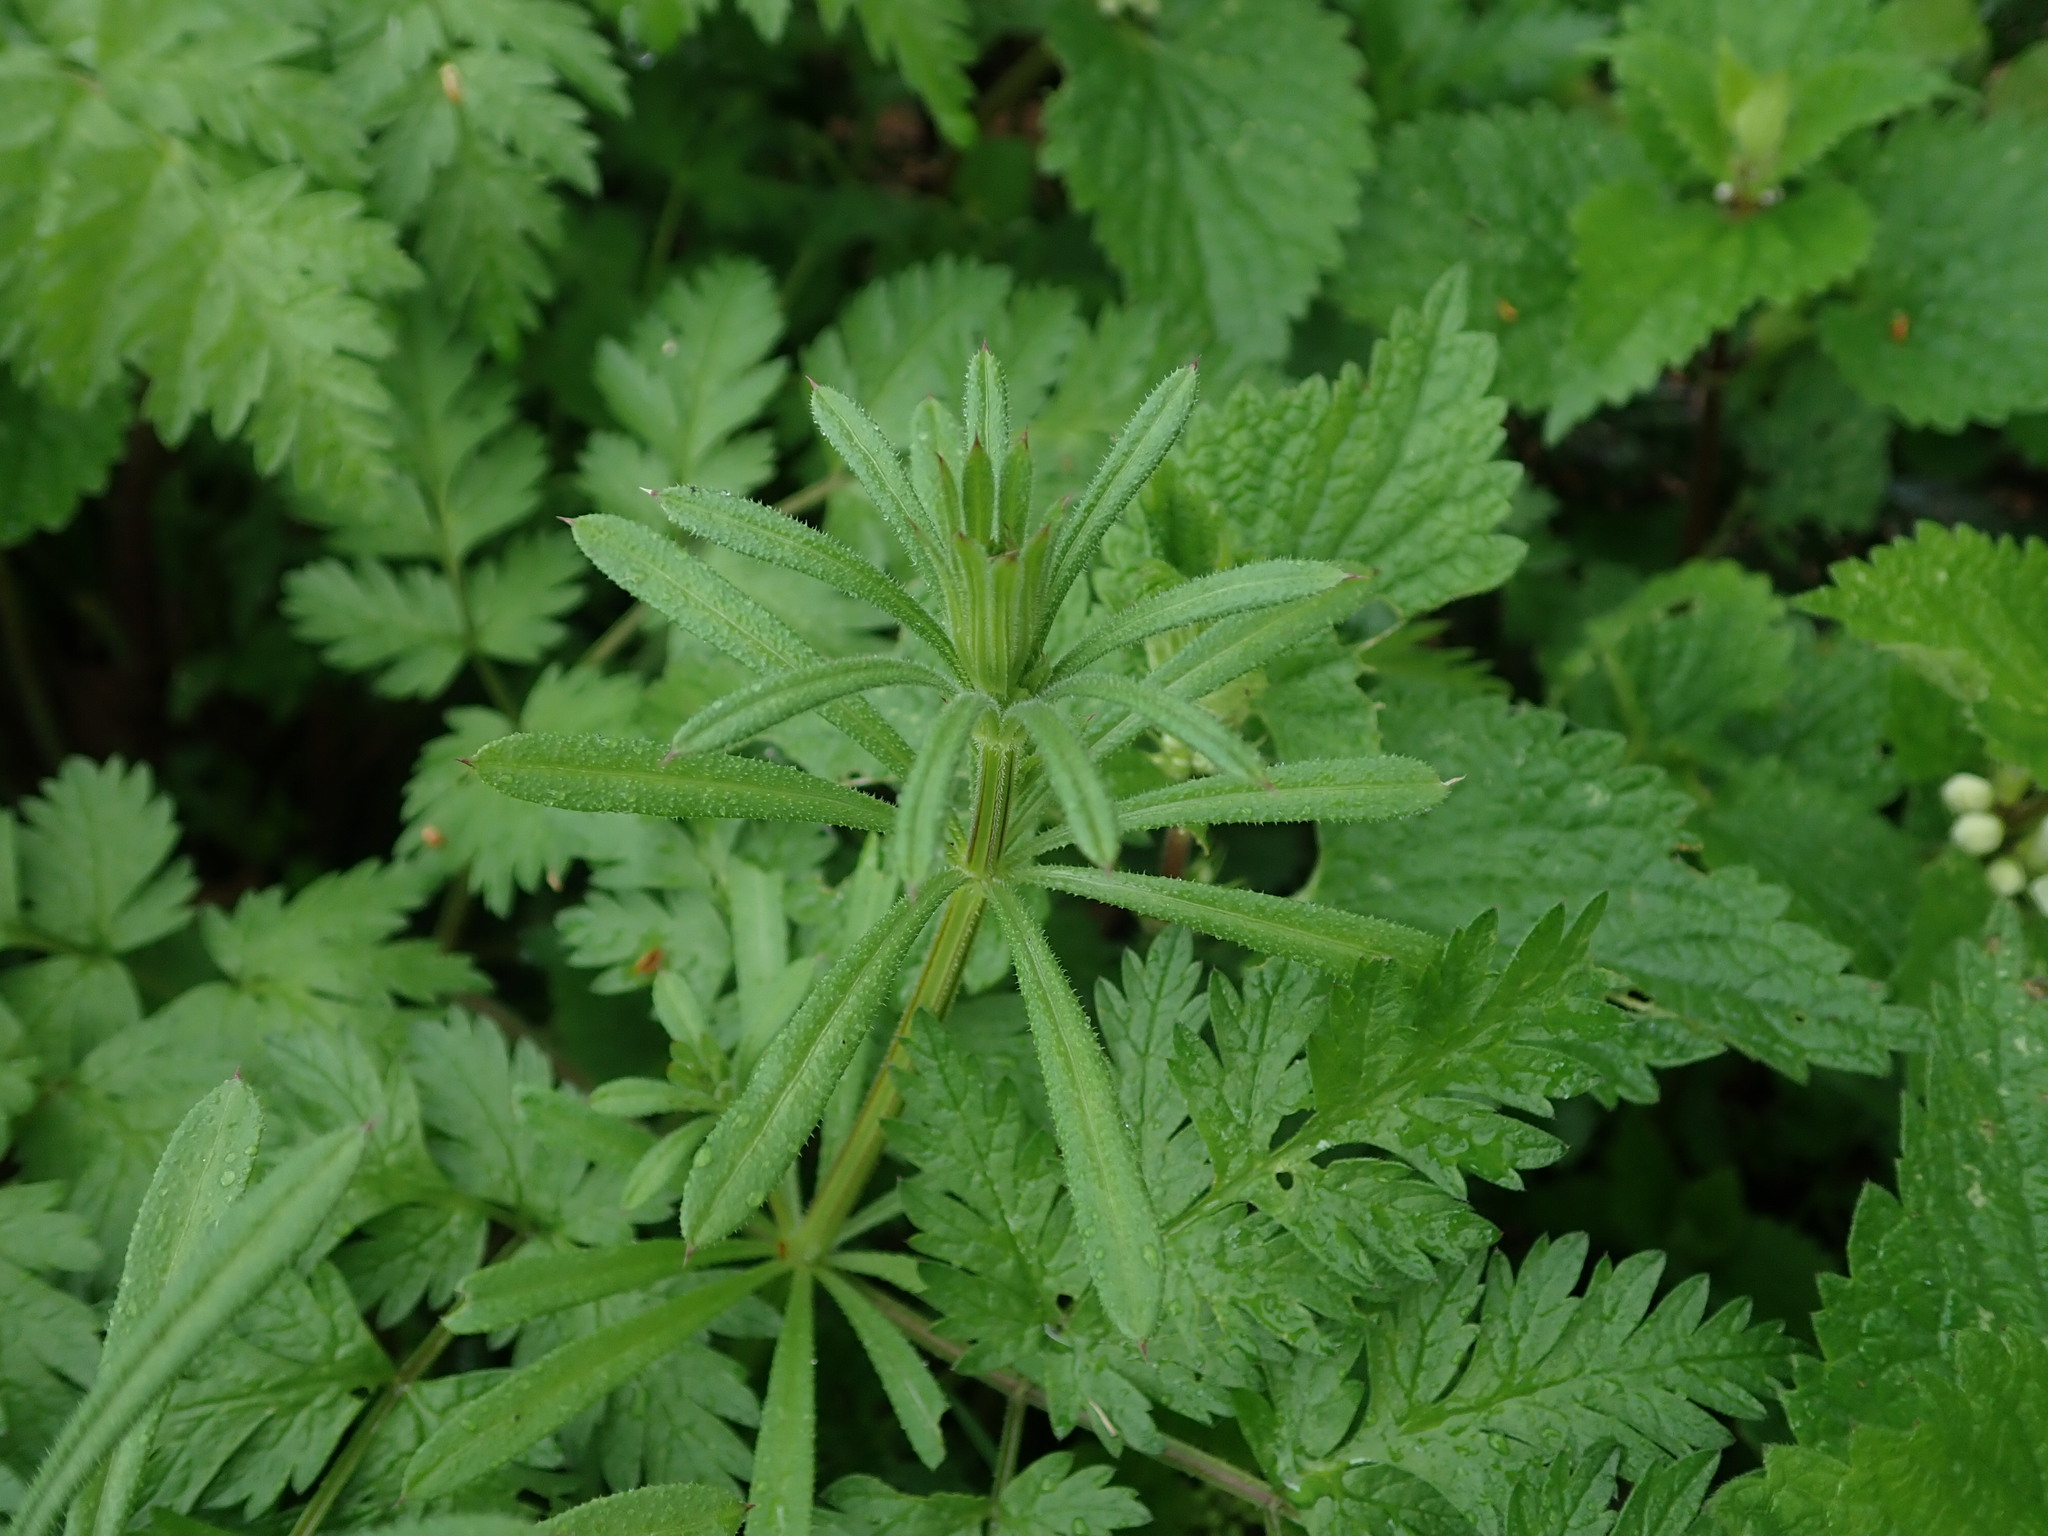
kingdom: Plantae
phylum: Tracheophyta
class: Magnoliopsida
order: Gentianales
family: Rubiaceae
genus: Galium
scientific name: Galium aparine
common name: Cleavers
